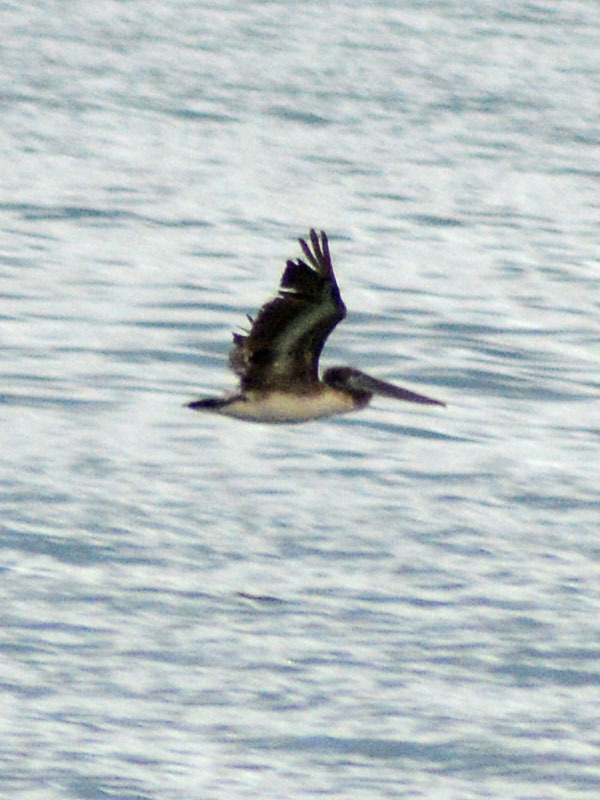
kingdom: Animalia
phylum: Chordata
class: Aves
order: Pelecaniformes
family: Pelecanidae
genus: Pelecanus
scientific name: Pelecanus occidentalis
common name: Brown pelican
